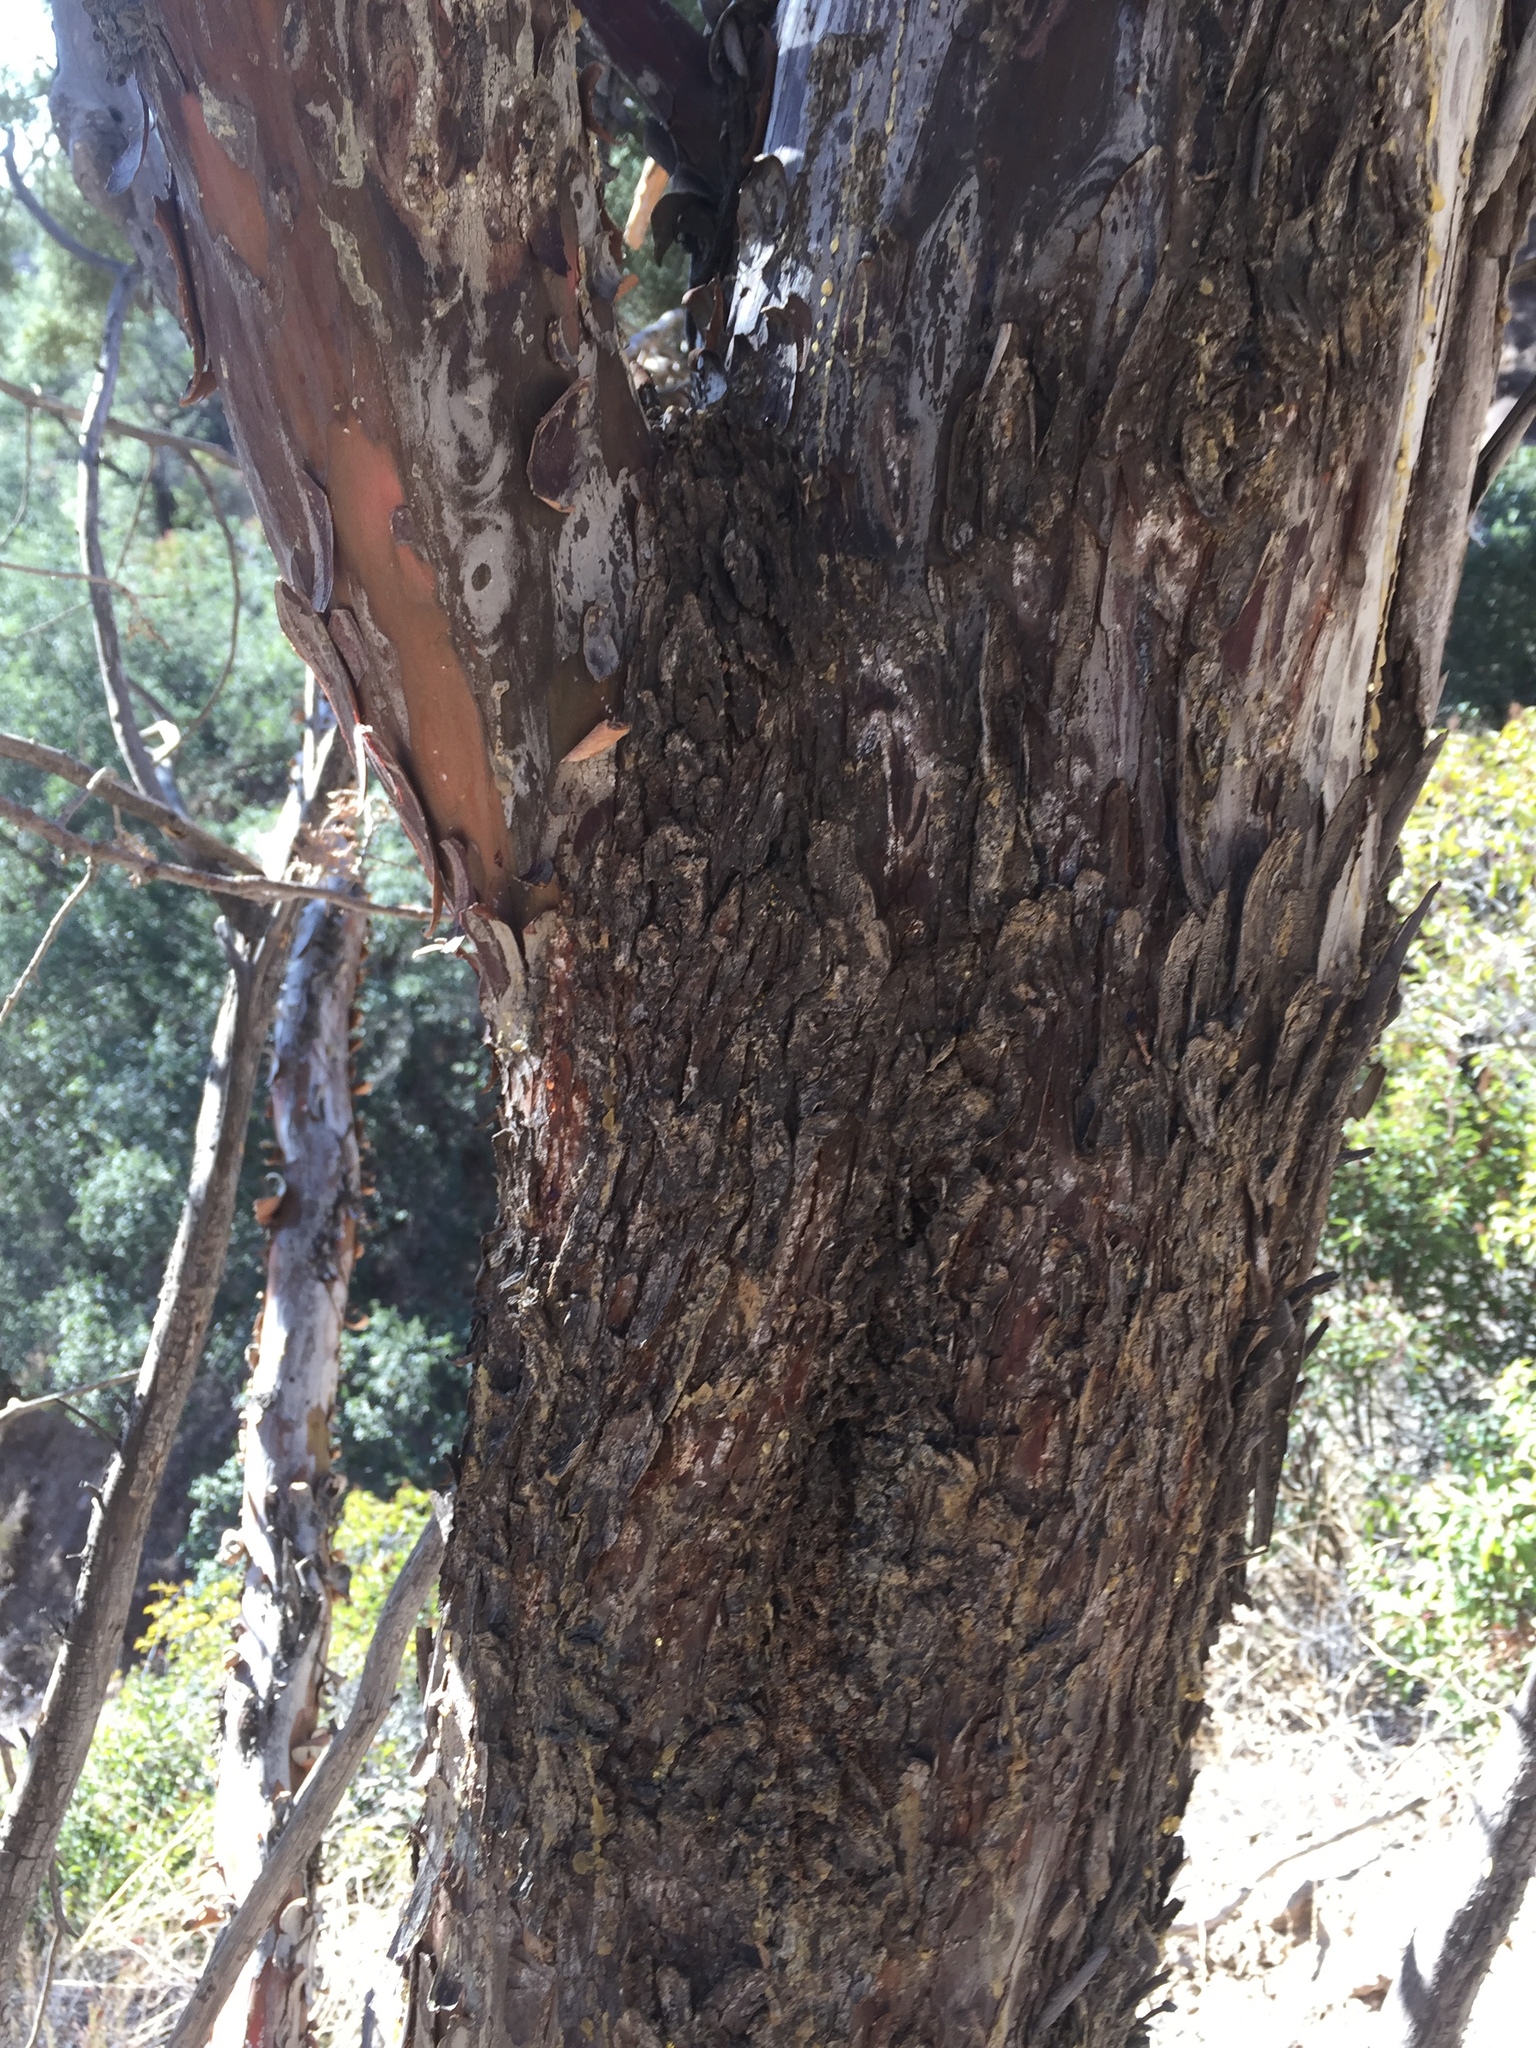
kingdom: Plantae
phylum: Tracheophyta
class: Pinopsida
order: Pinales
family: Cupressaceae
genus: Cupressus
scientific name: Cupressus
